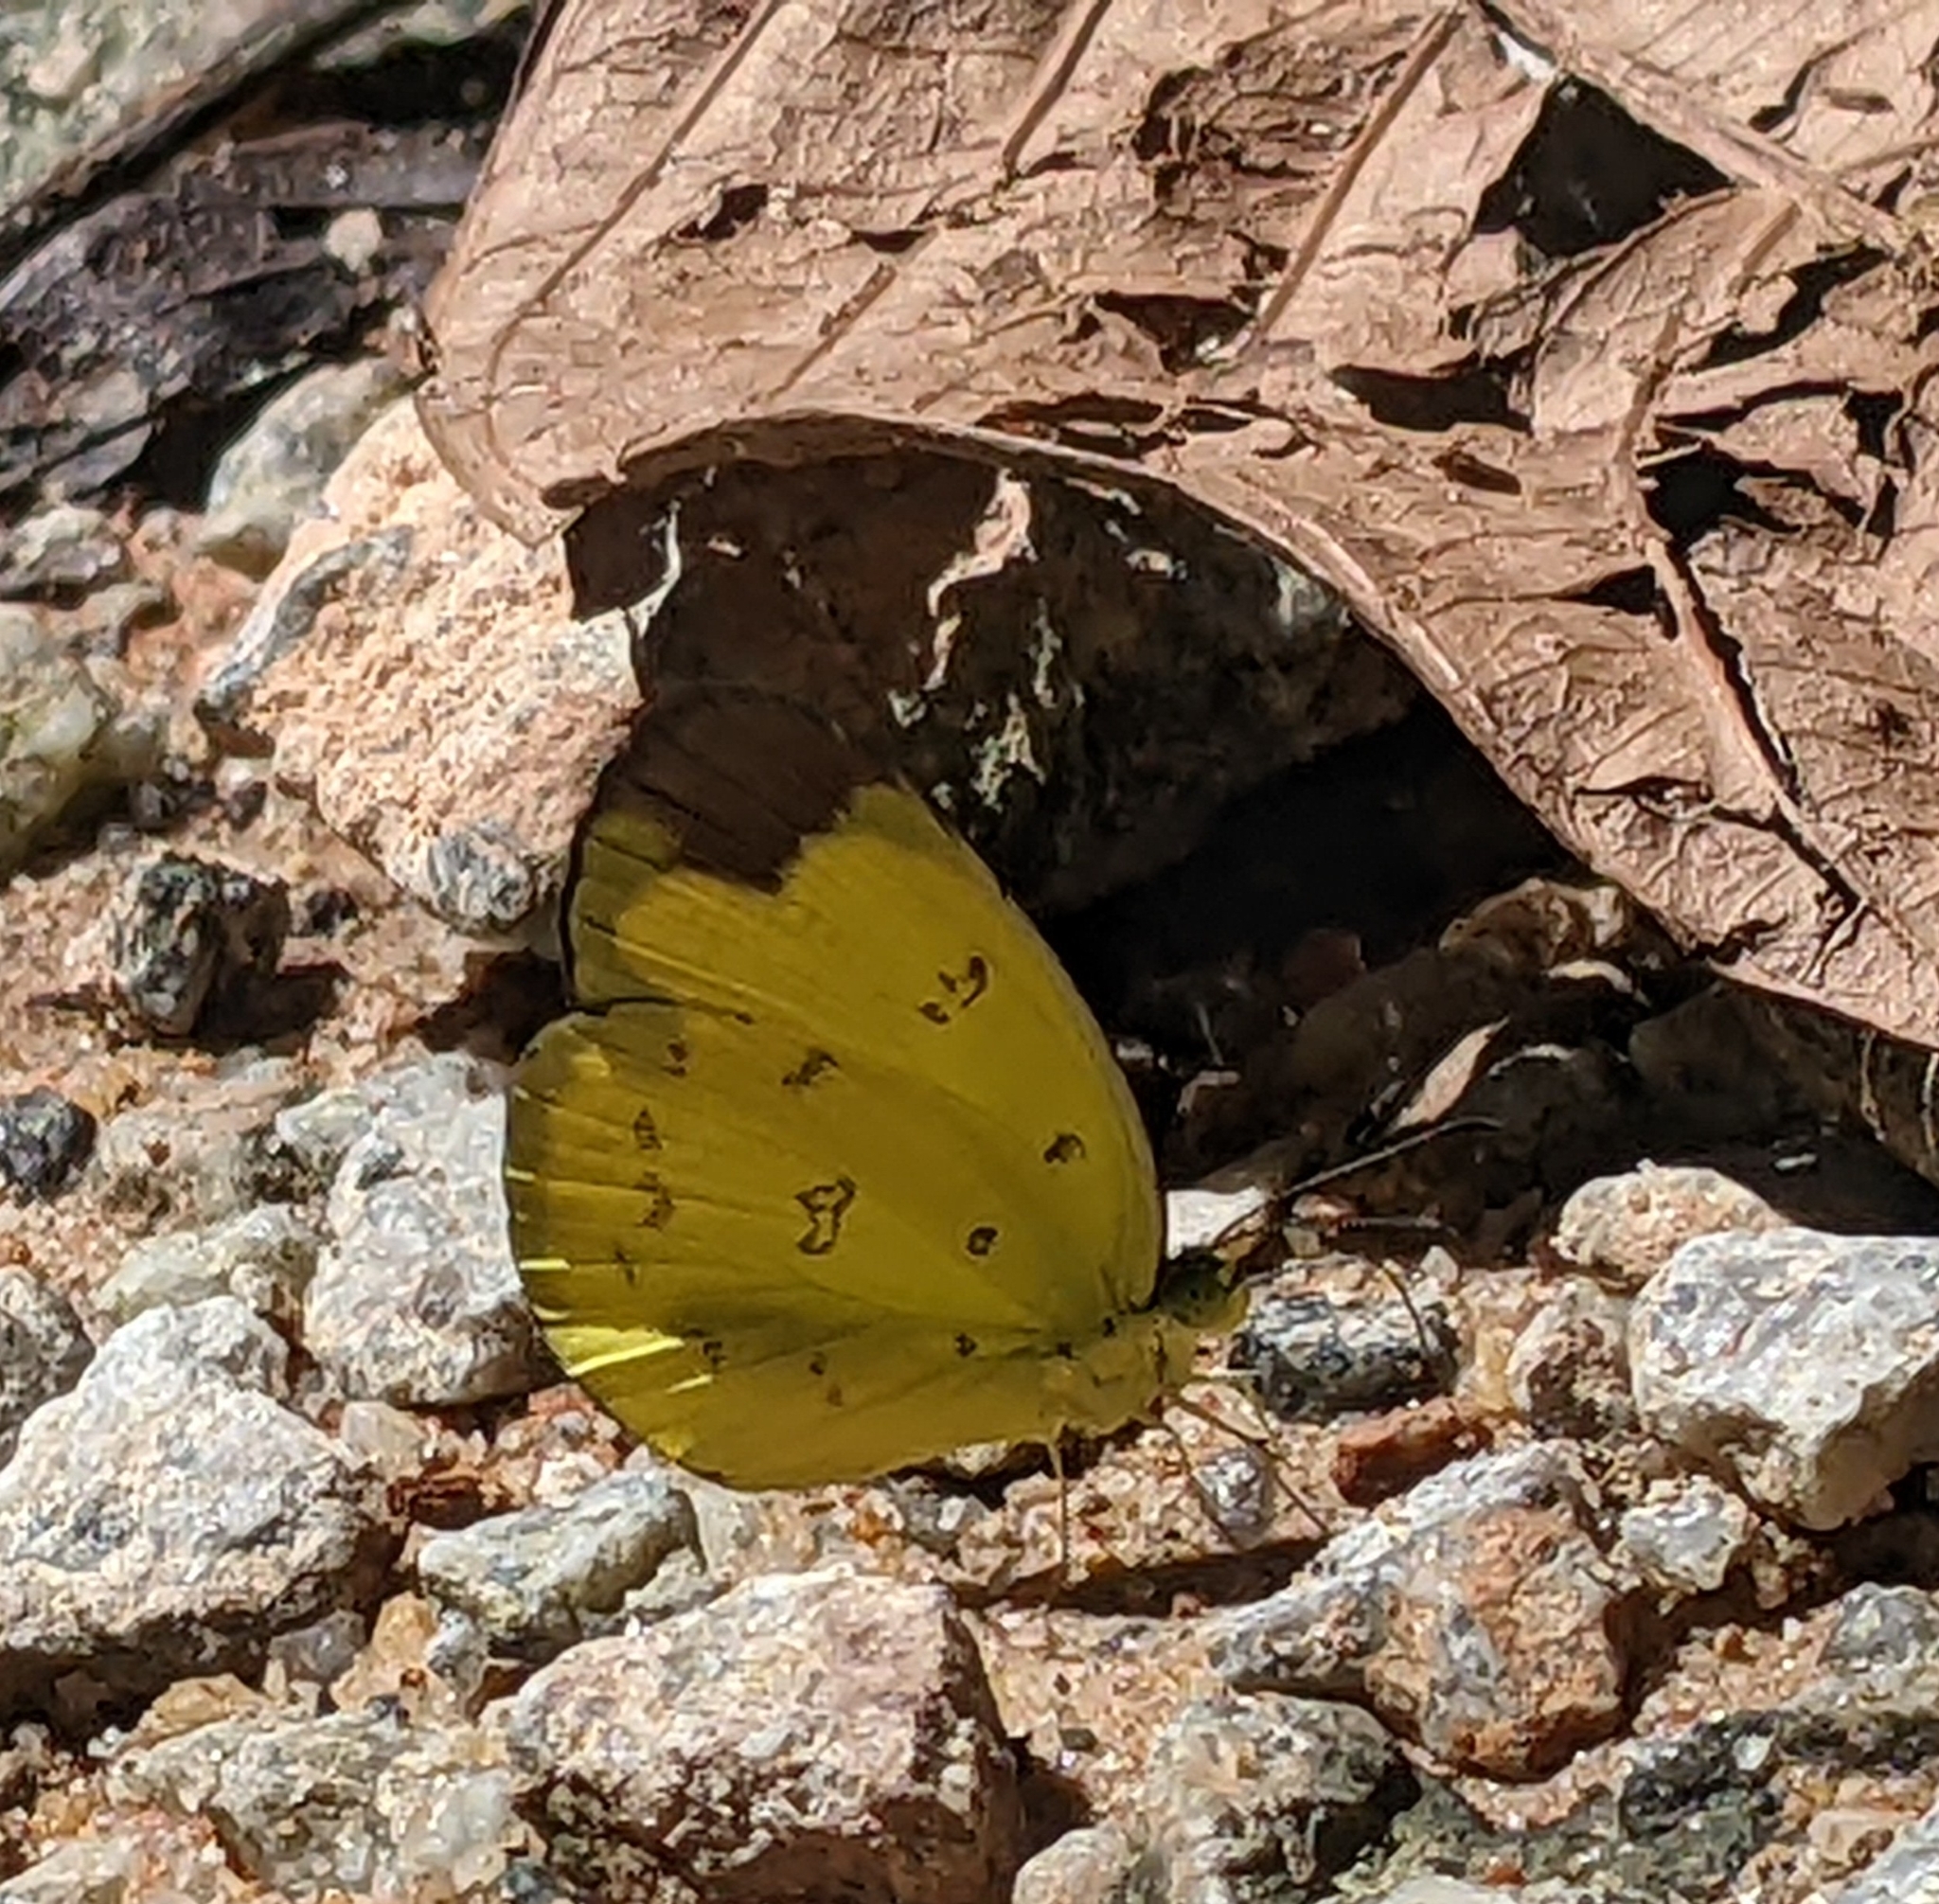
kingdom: Animalia
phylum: Arthropoda
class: Insecta
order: Lepidoptera
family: Pieridae
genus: Eurema
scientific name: Eurema sari
